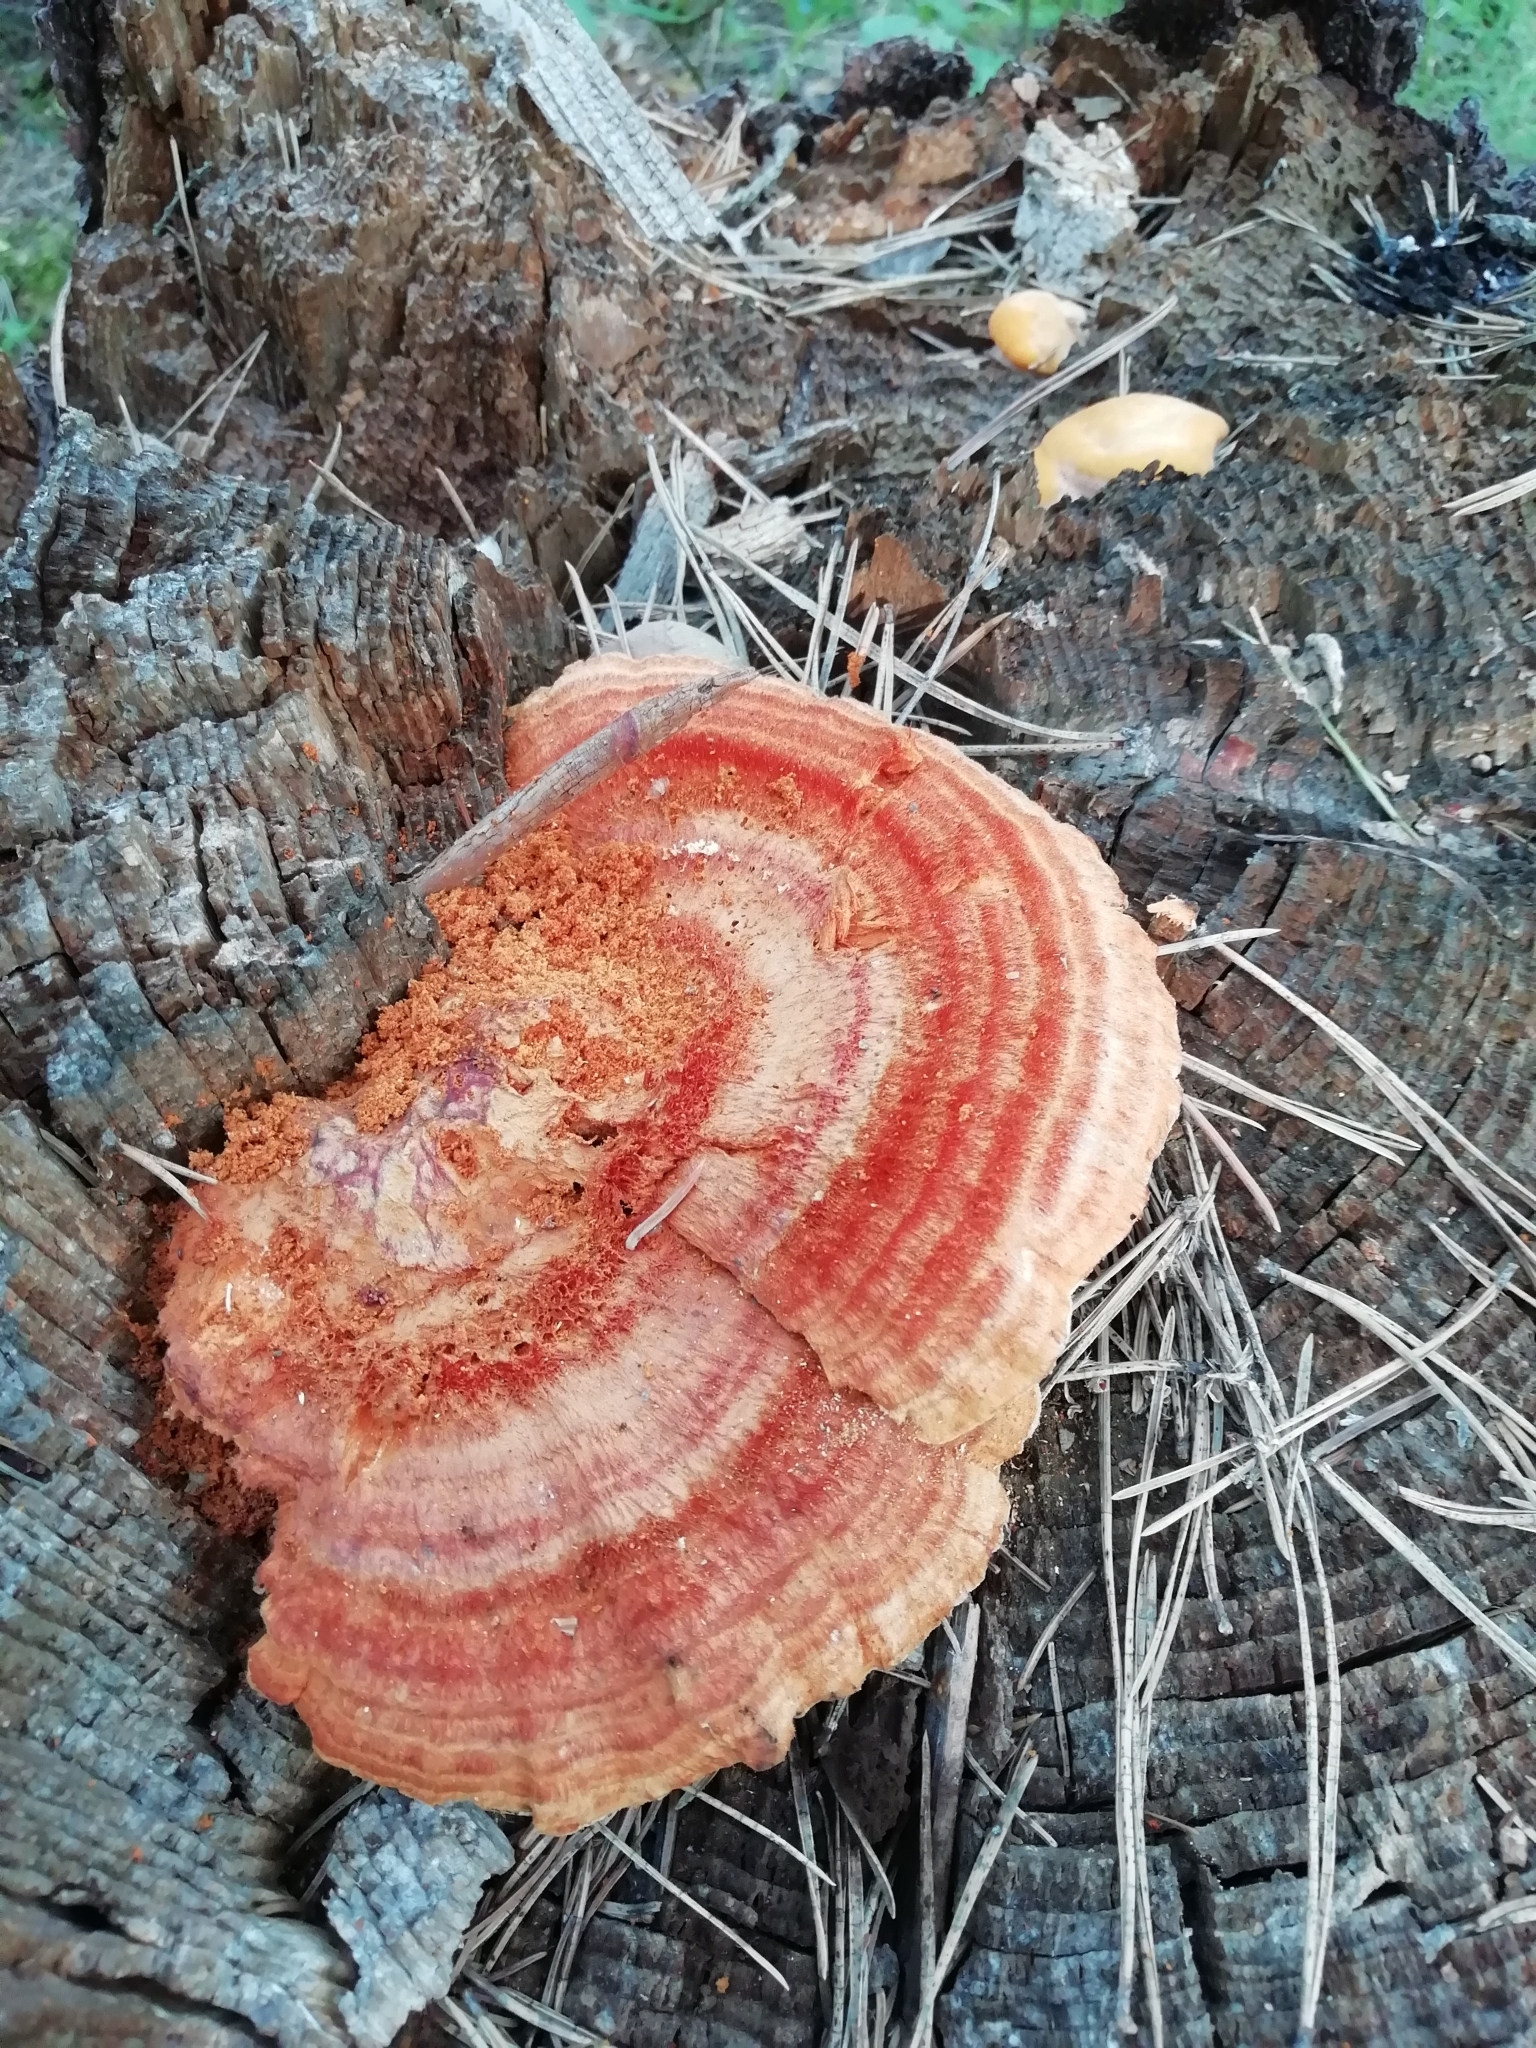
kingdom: Fungi
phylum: Basidiomycota
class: Agaricomycetes
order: Polyporales
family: Pycnoporellaceae
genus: Pycnoporellus
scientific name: Pycnoporellus fulgens
